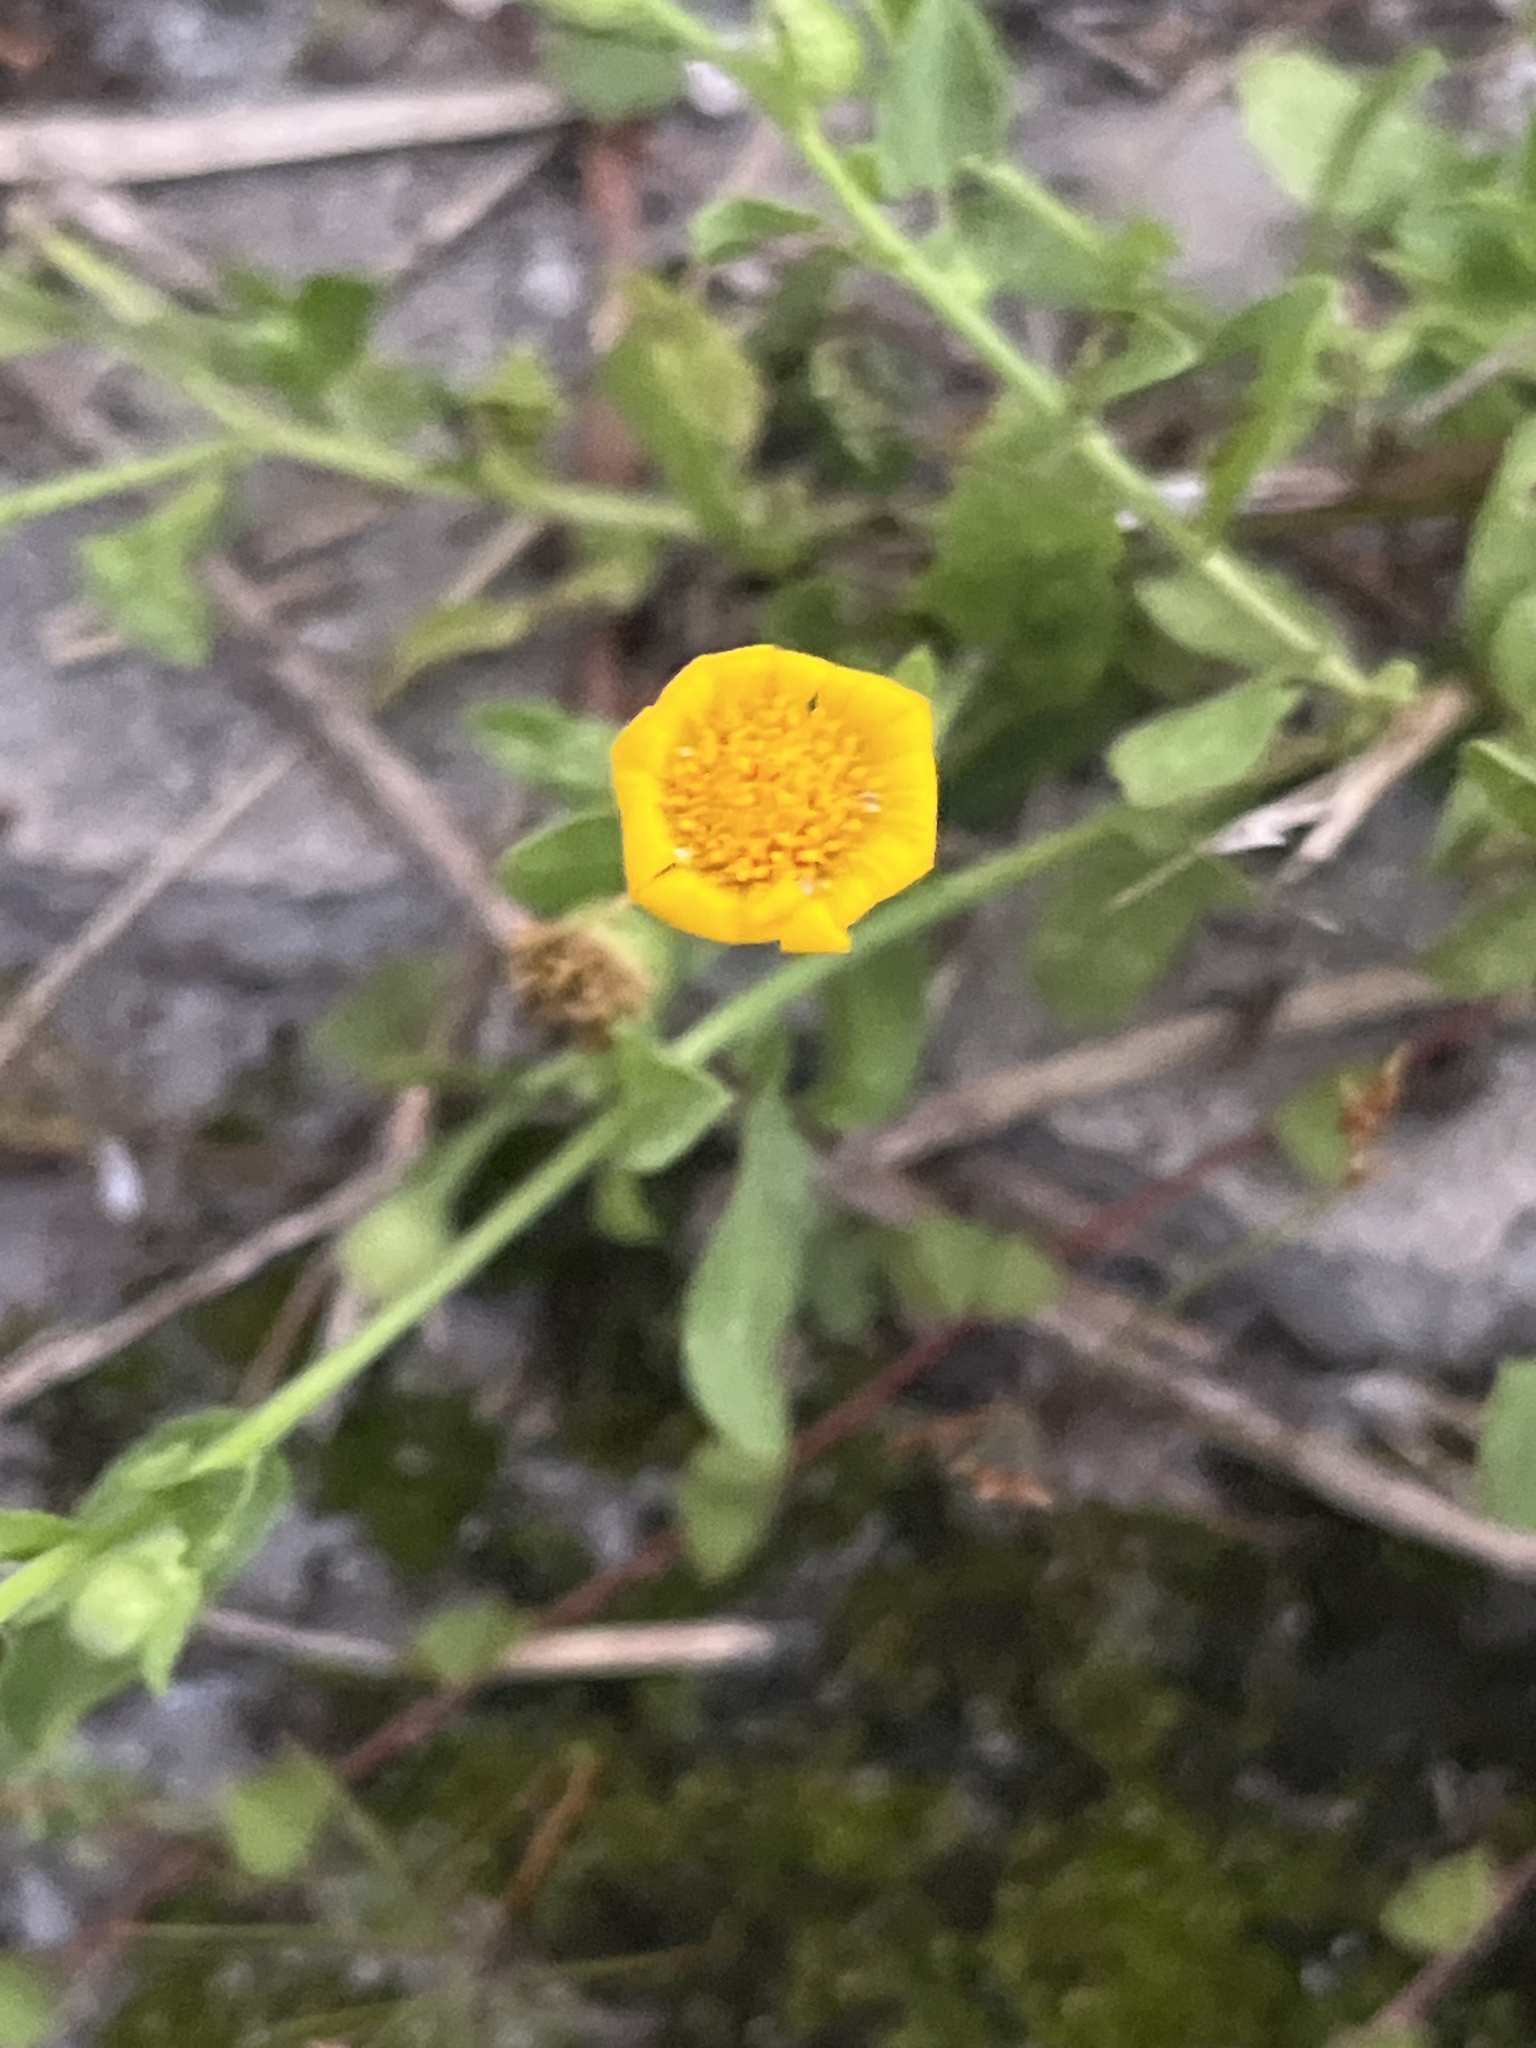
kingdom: Plantae
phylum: Tracheophyta
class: Magnoliopsida
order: Asterales
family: Asteraceae
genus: Heterotheca
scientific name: Heterotheca subaxillaris
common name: Camphorweed
